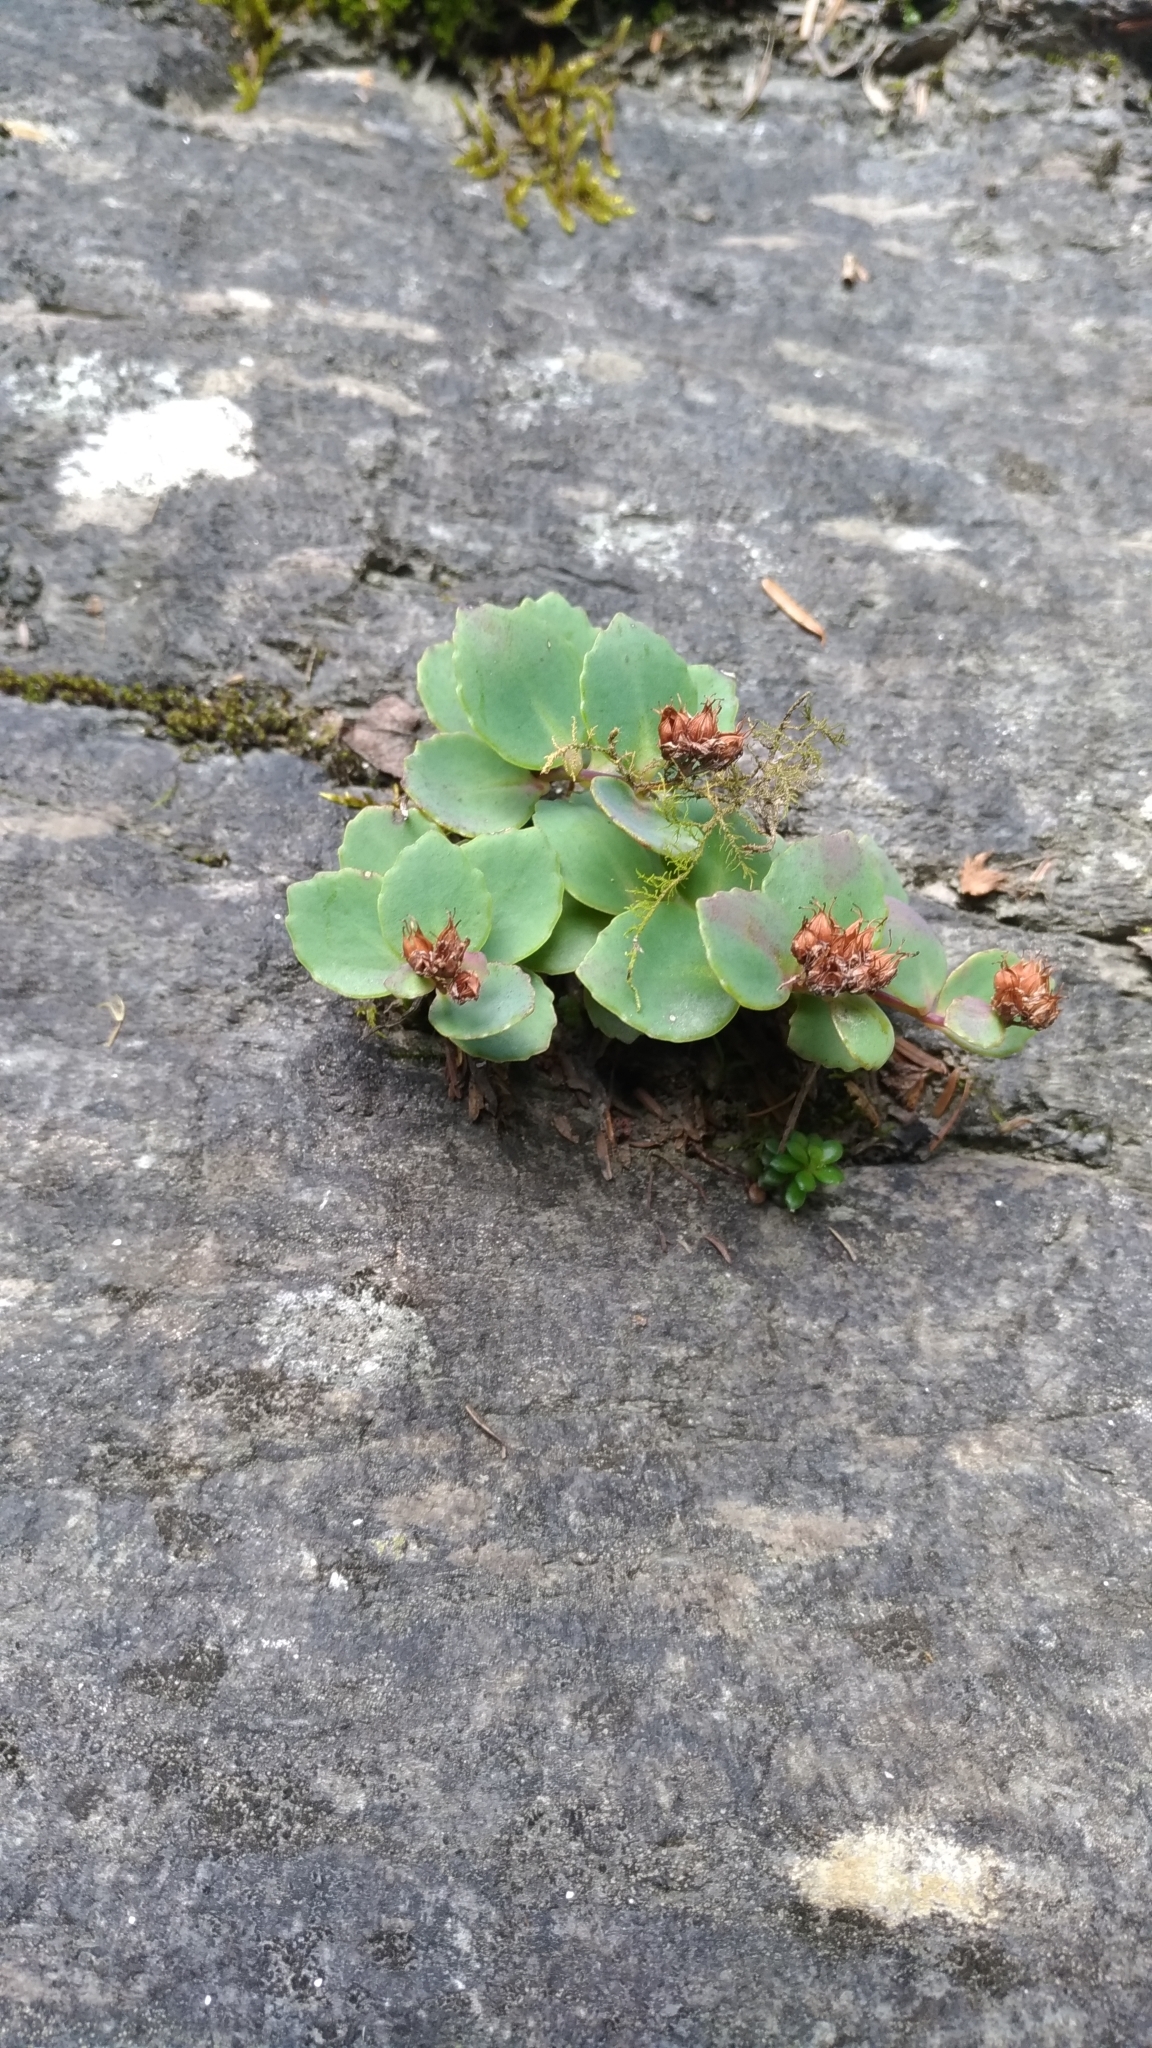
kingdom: Plantae
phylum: Tracheophyta
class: Magnoliopsida
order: Saxifragales
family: Crassulaceae
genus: Phedimus
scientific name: Phedimus subcapitatus
